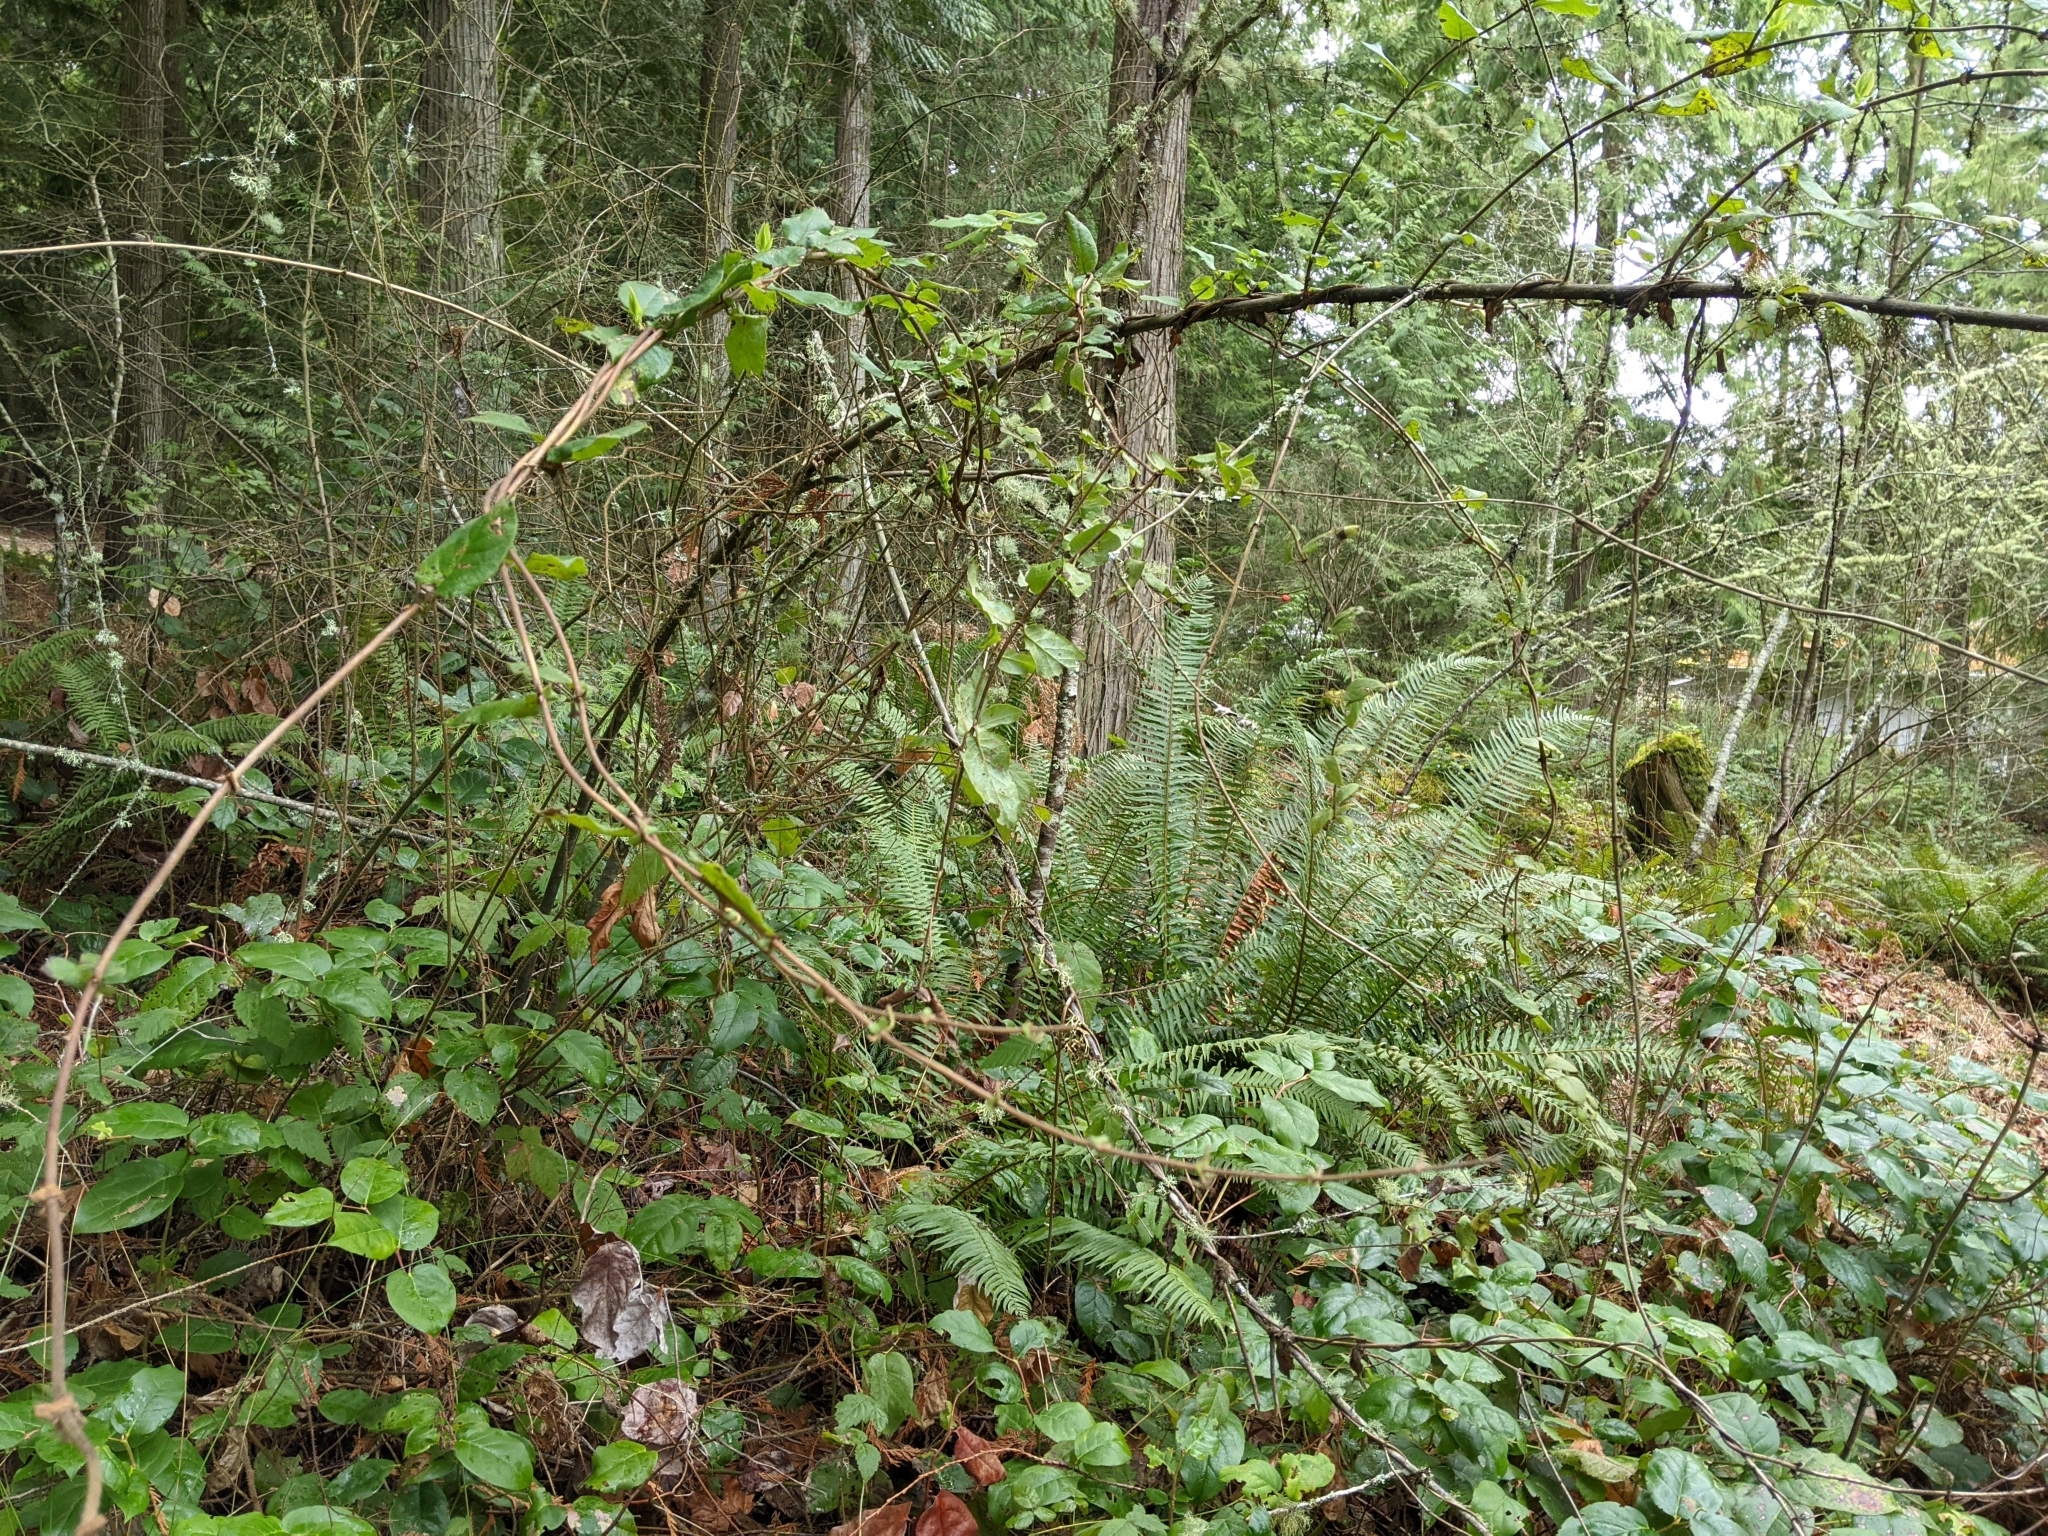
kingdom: Plantae
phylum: Tracheophyta
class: Magnoliopsida
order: Dipsacales
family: Caprifoliaceae
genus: Lonicera
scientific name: Lonicera hispidula
